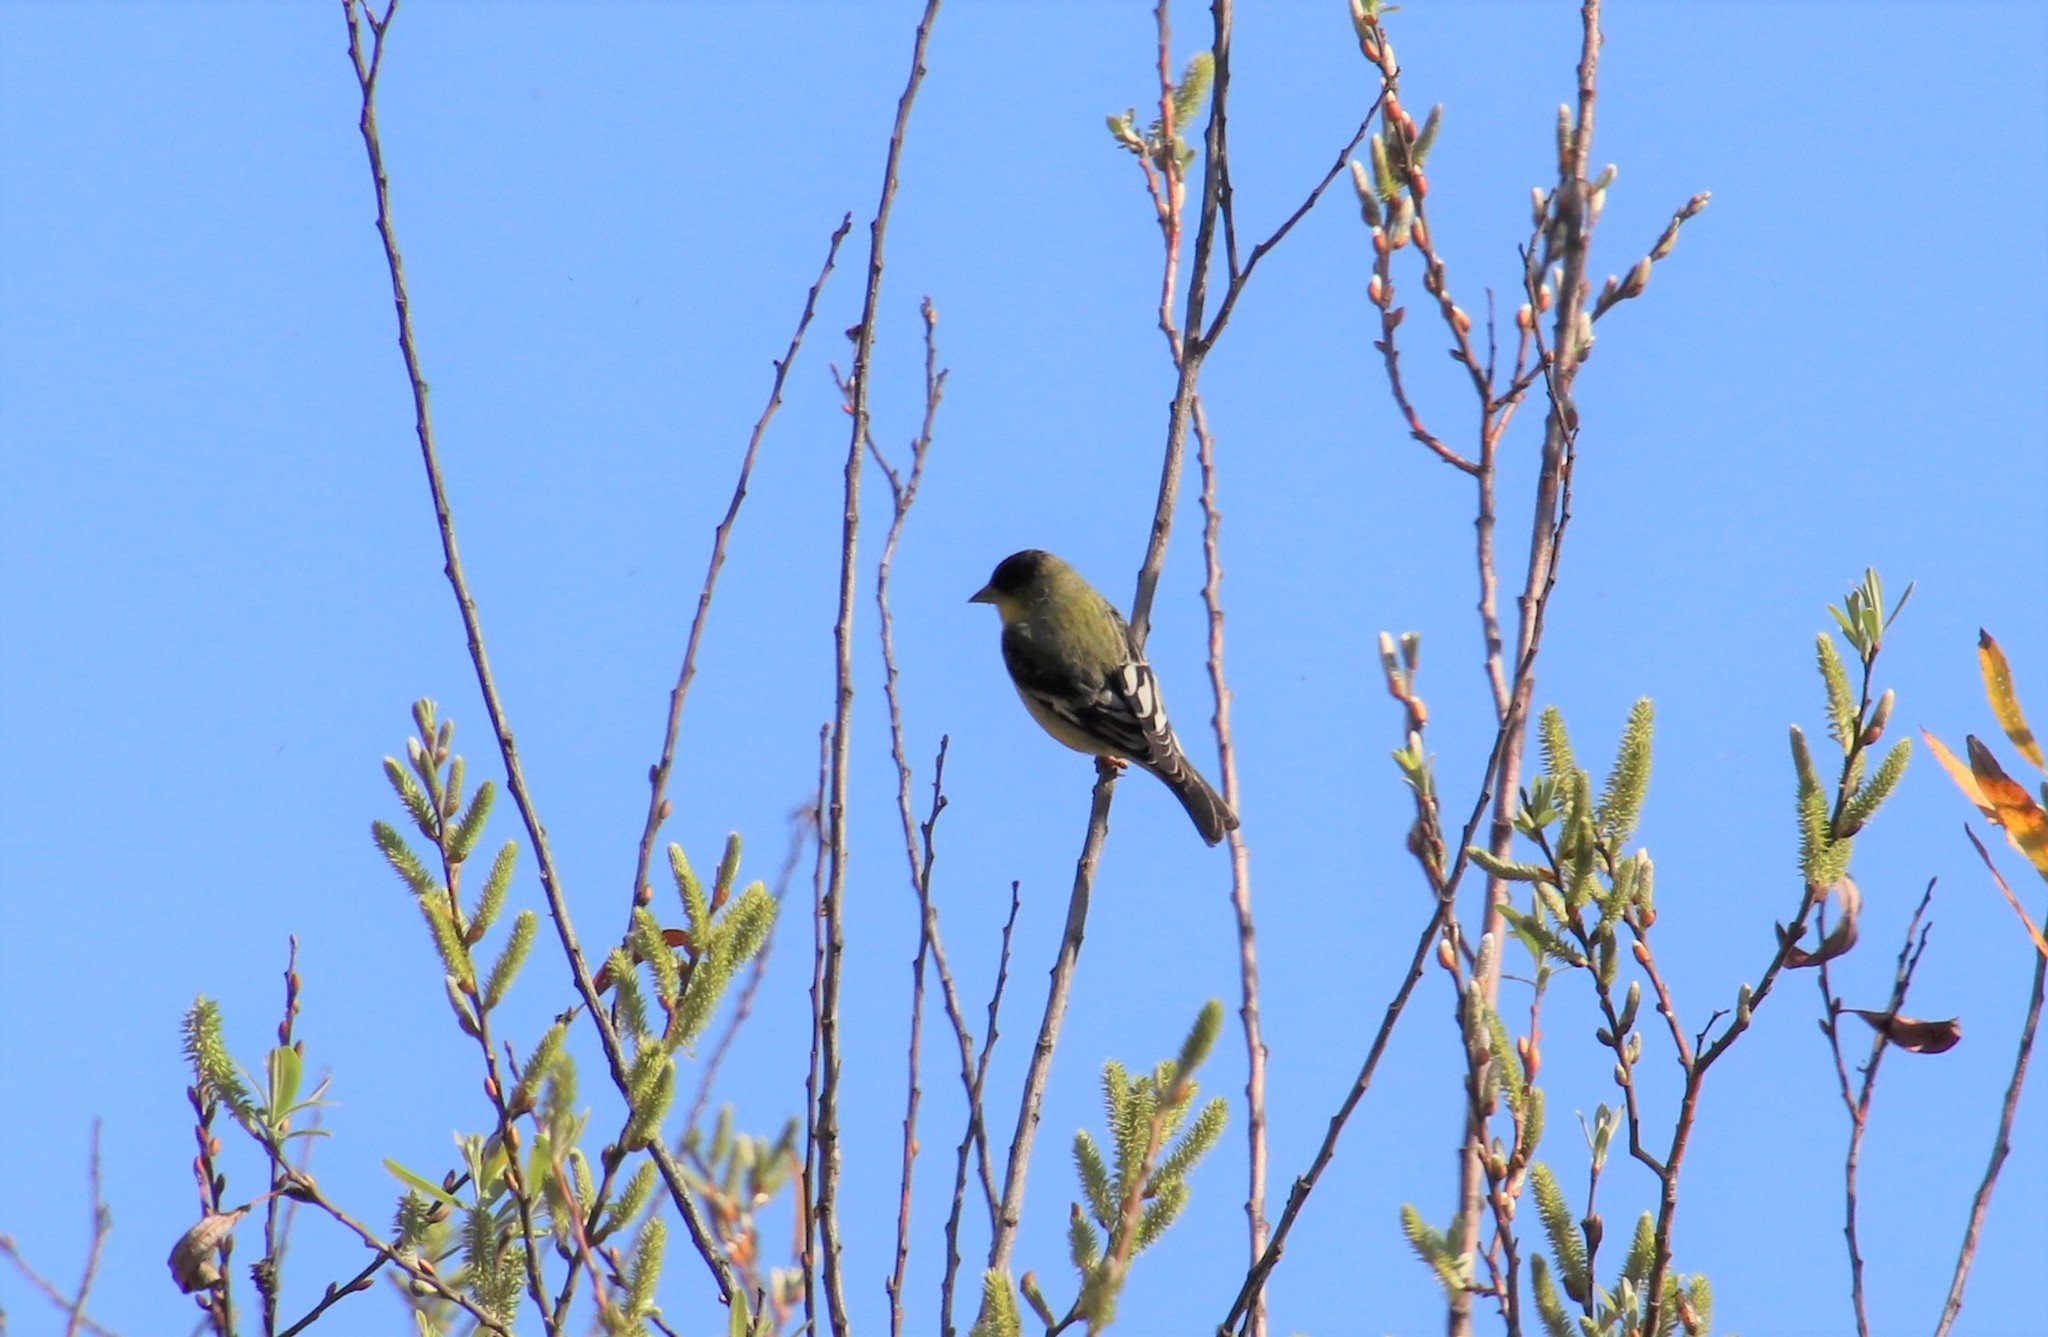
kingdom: Animalia
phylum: Chordata
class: Aves
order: Passeriformes
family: Fringillidae
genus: Spinus
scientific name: Spinus psaltria
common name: Lesser goldfinch
